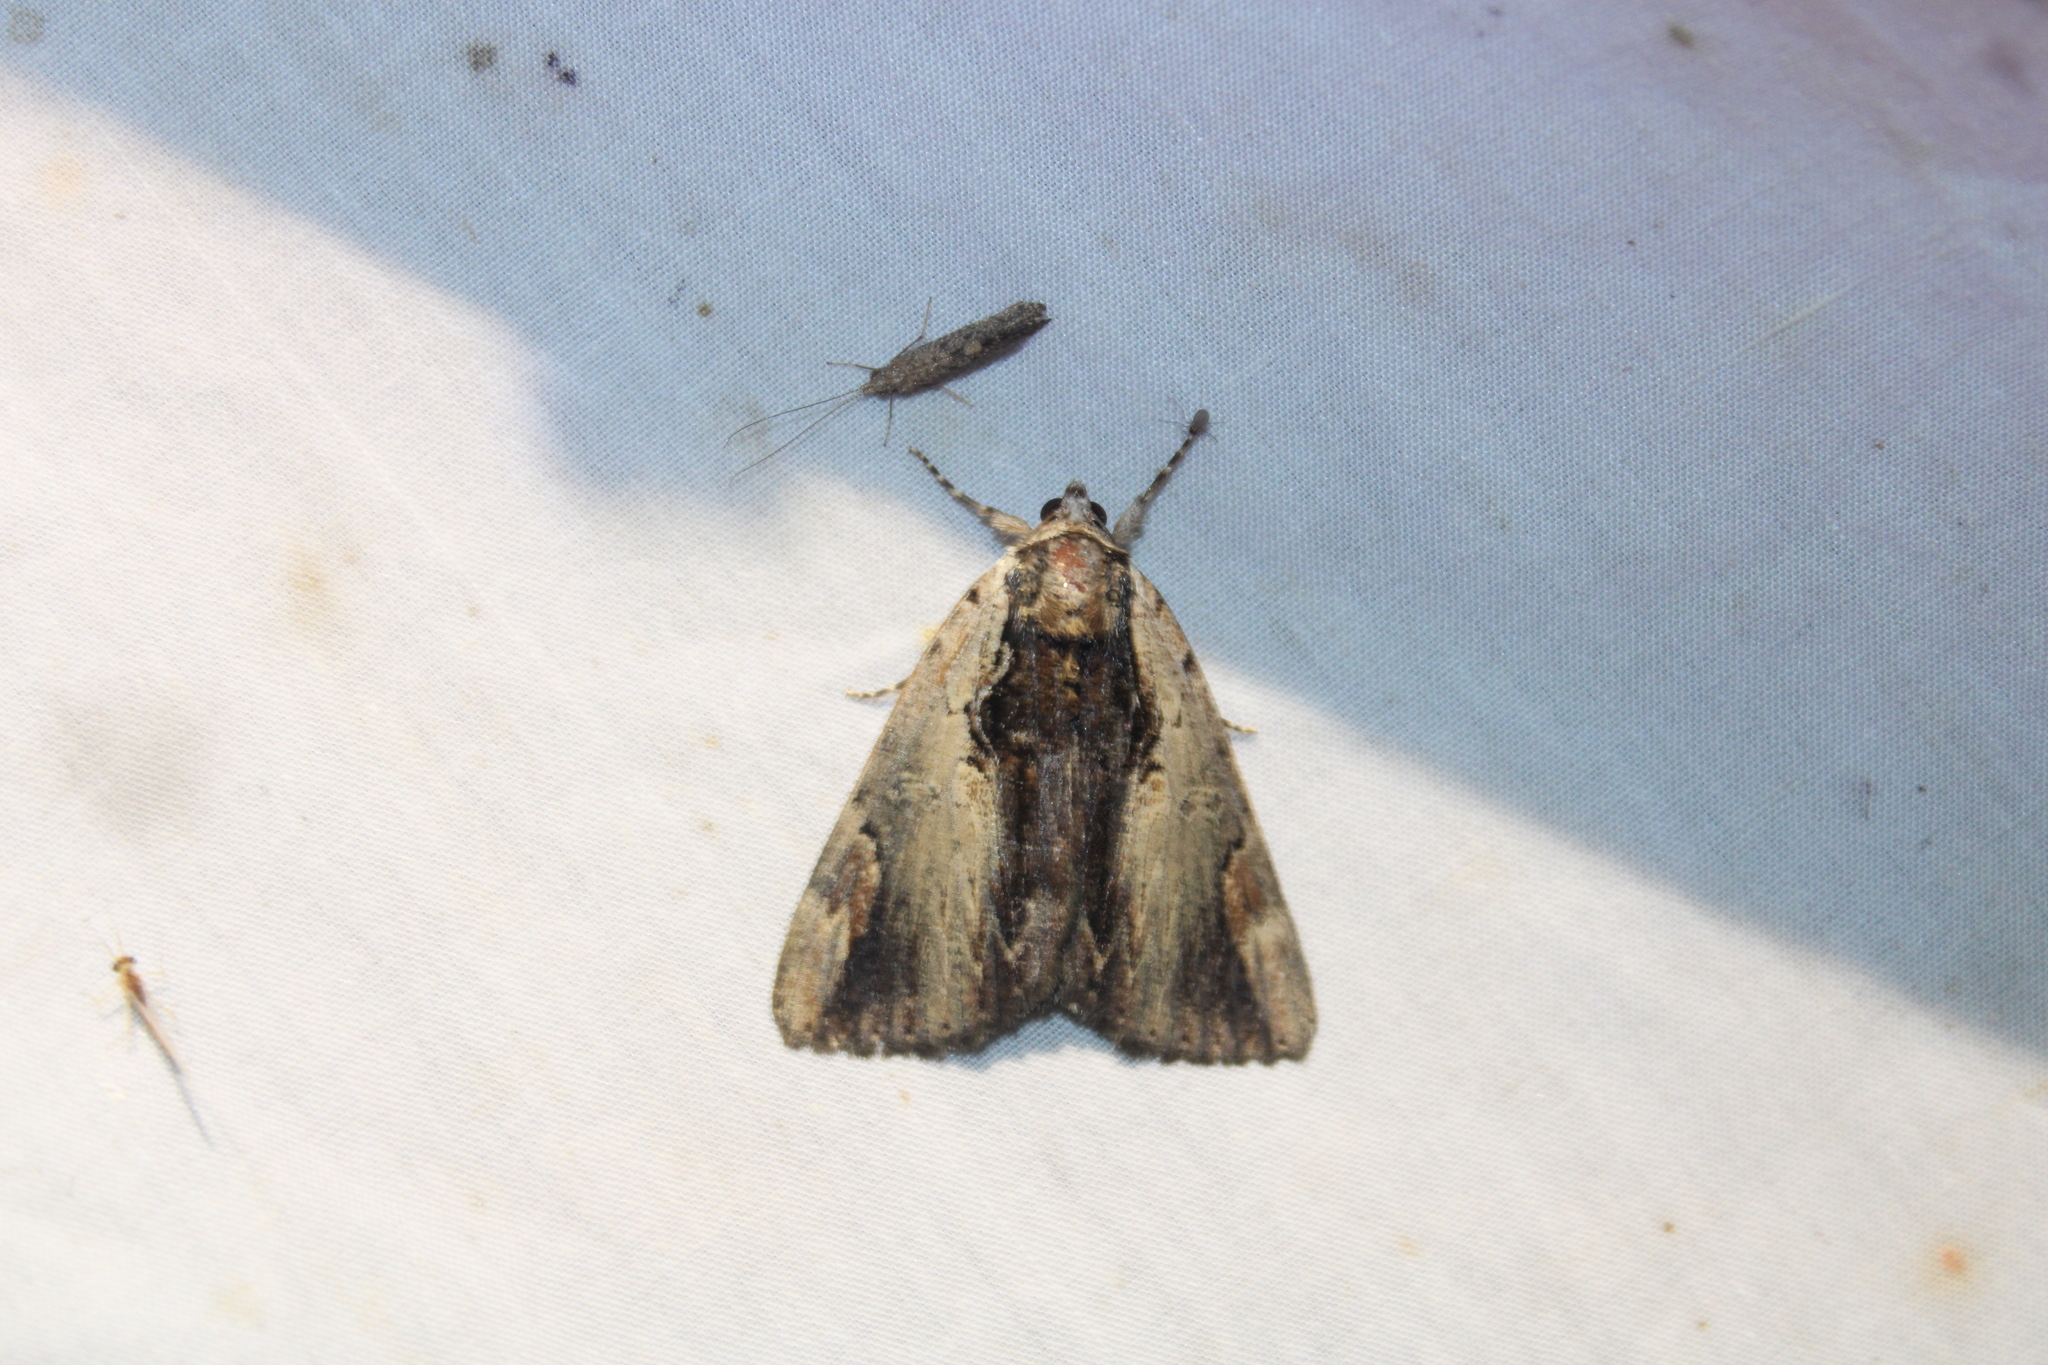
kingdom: Animalia
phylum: Arthropoda
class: Insecta
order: Lepidoptera
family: Erebidae
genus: Catocala
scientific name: Catocala ultronia
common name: Ultronia underwing
